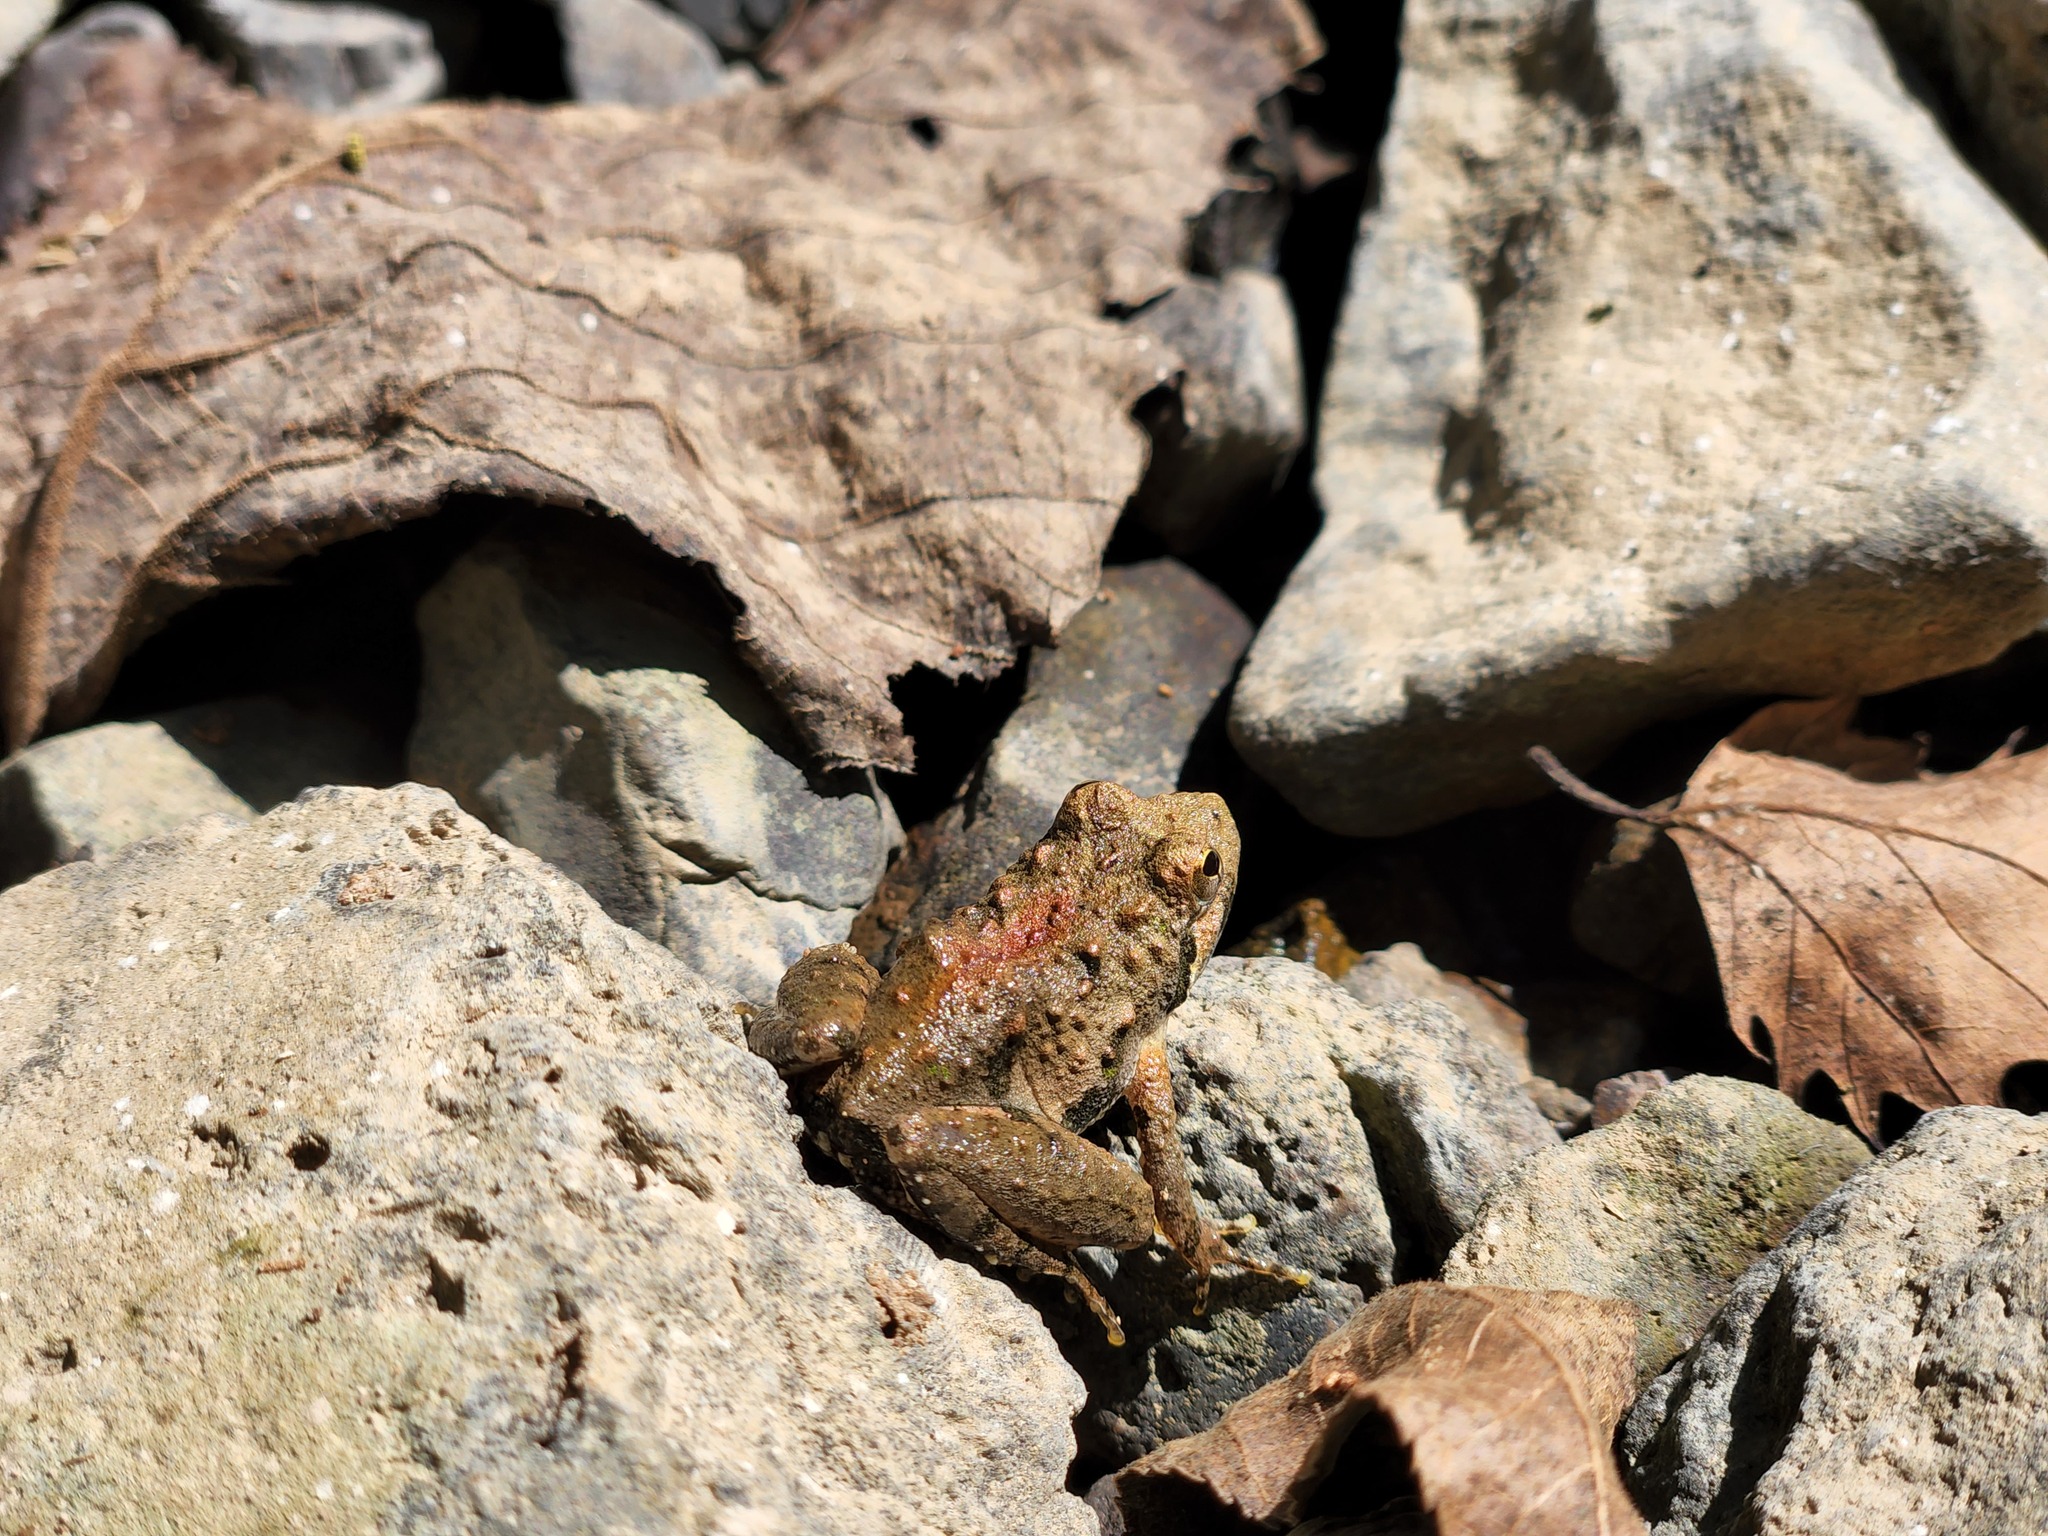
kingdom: Animalia
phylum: Chordata
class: Amphibia
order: Anura
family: Hylidae
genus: Acris
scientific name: Acris crepitans
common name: Northern cricket frog
